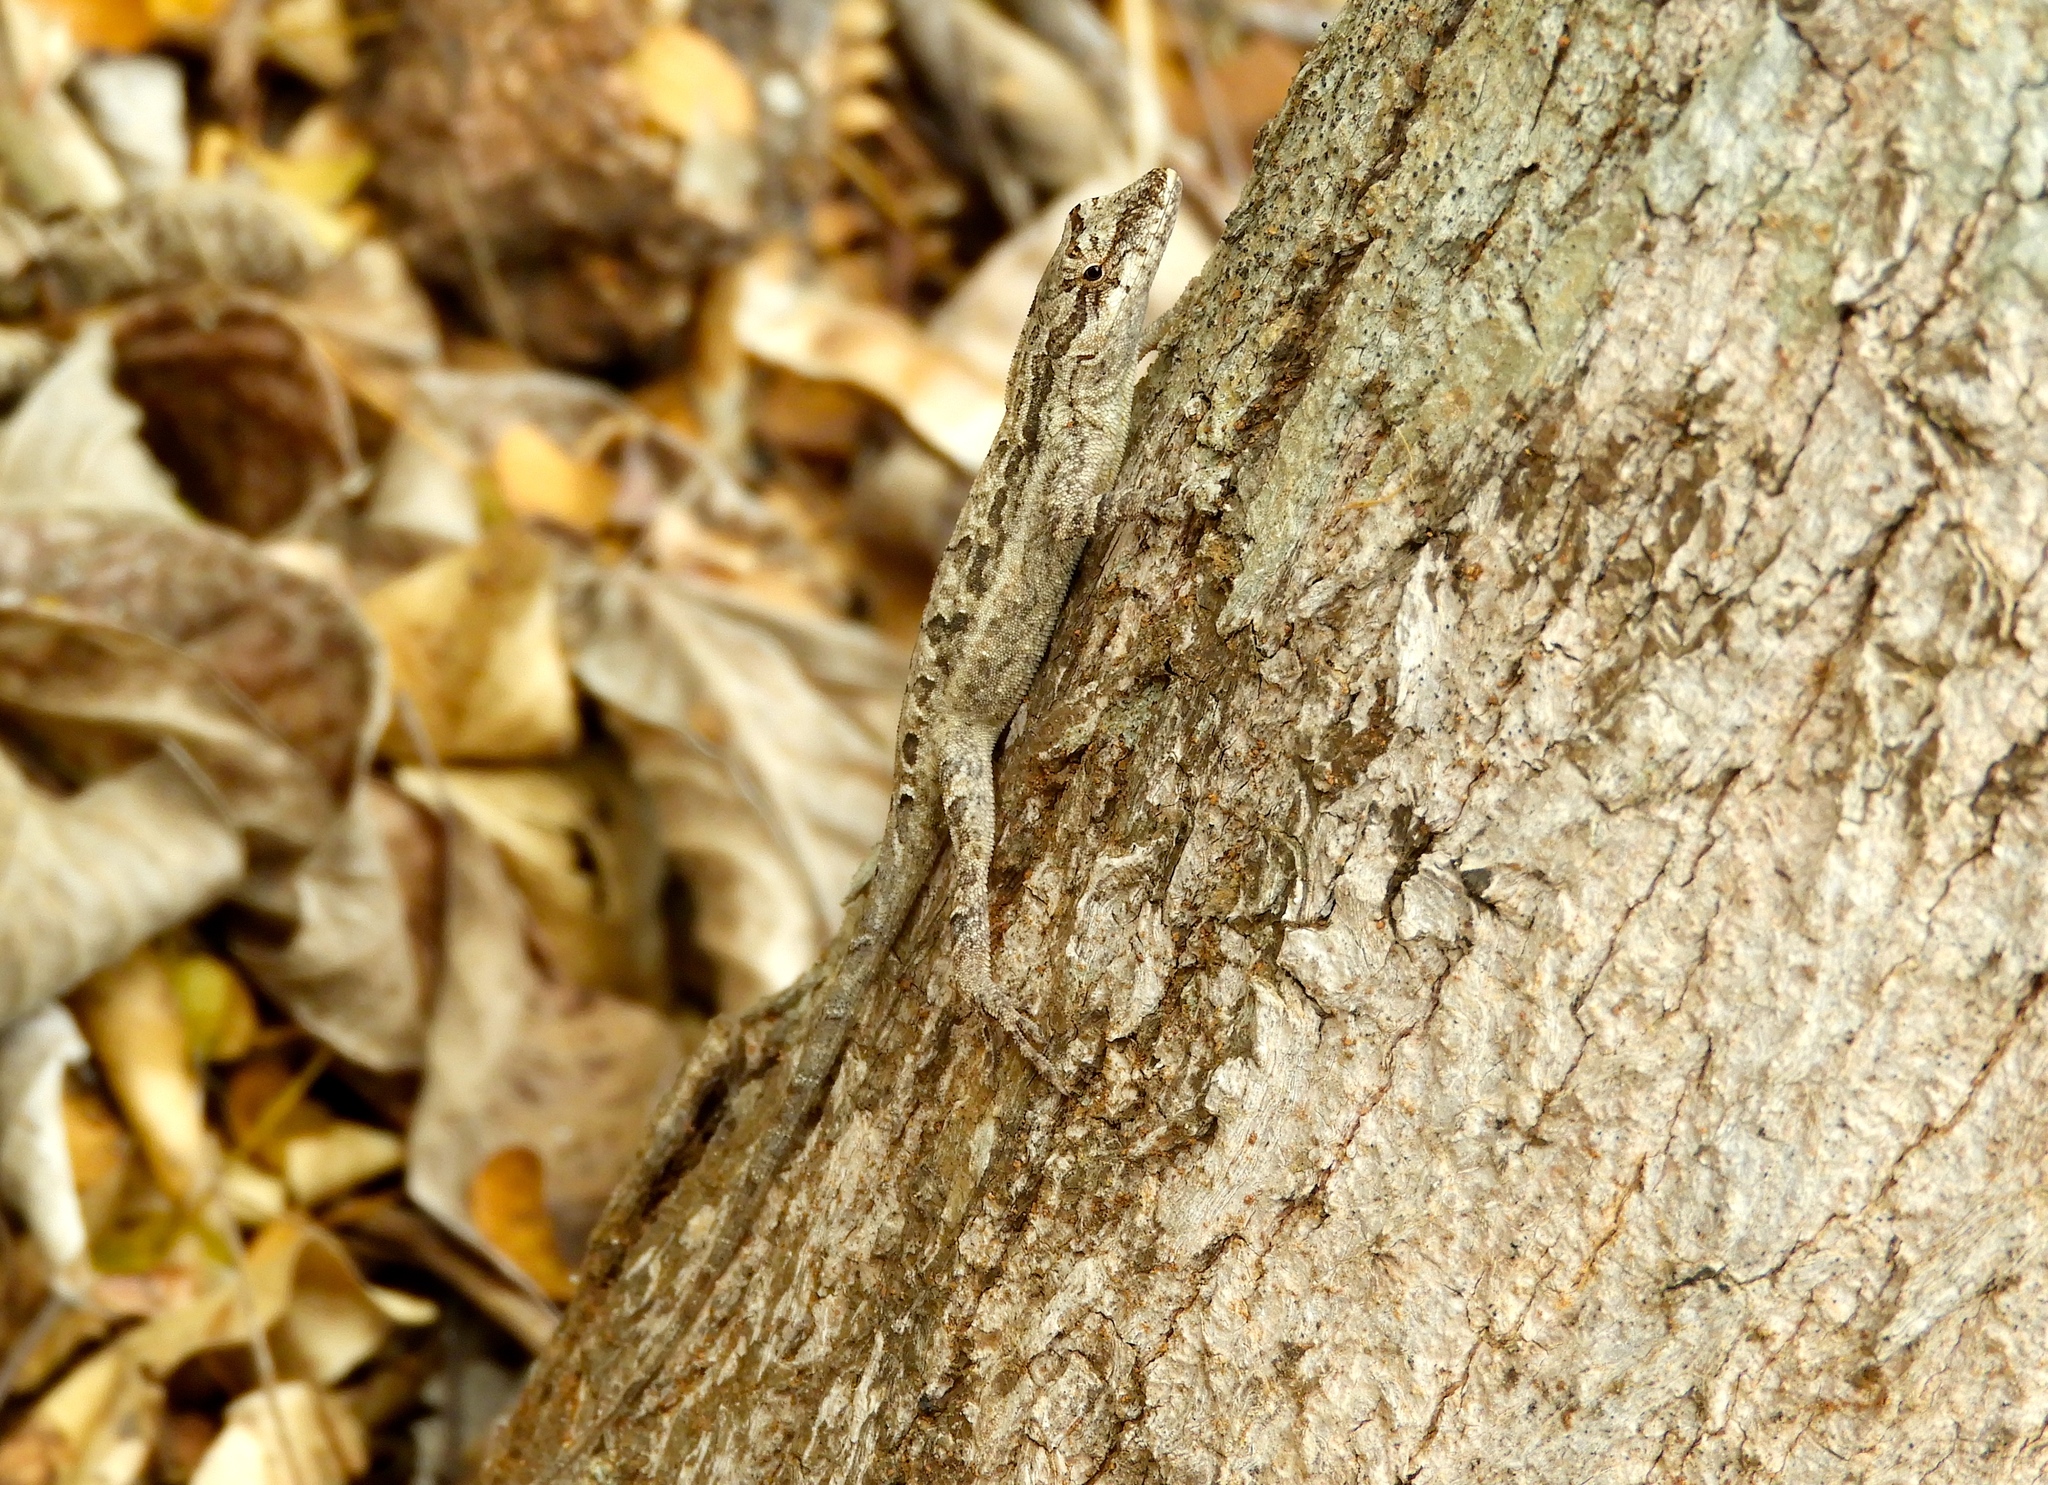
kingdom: Animalia
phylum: Chordata
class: Squamata
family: Dactyloidae
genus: Anolis
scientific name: Anolis nebulosus
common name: Clouded anole
